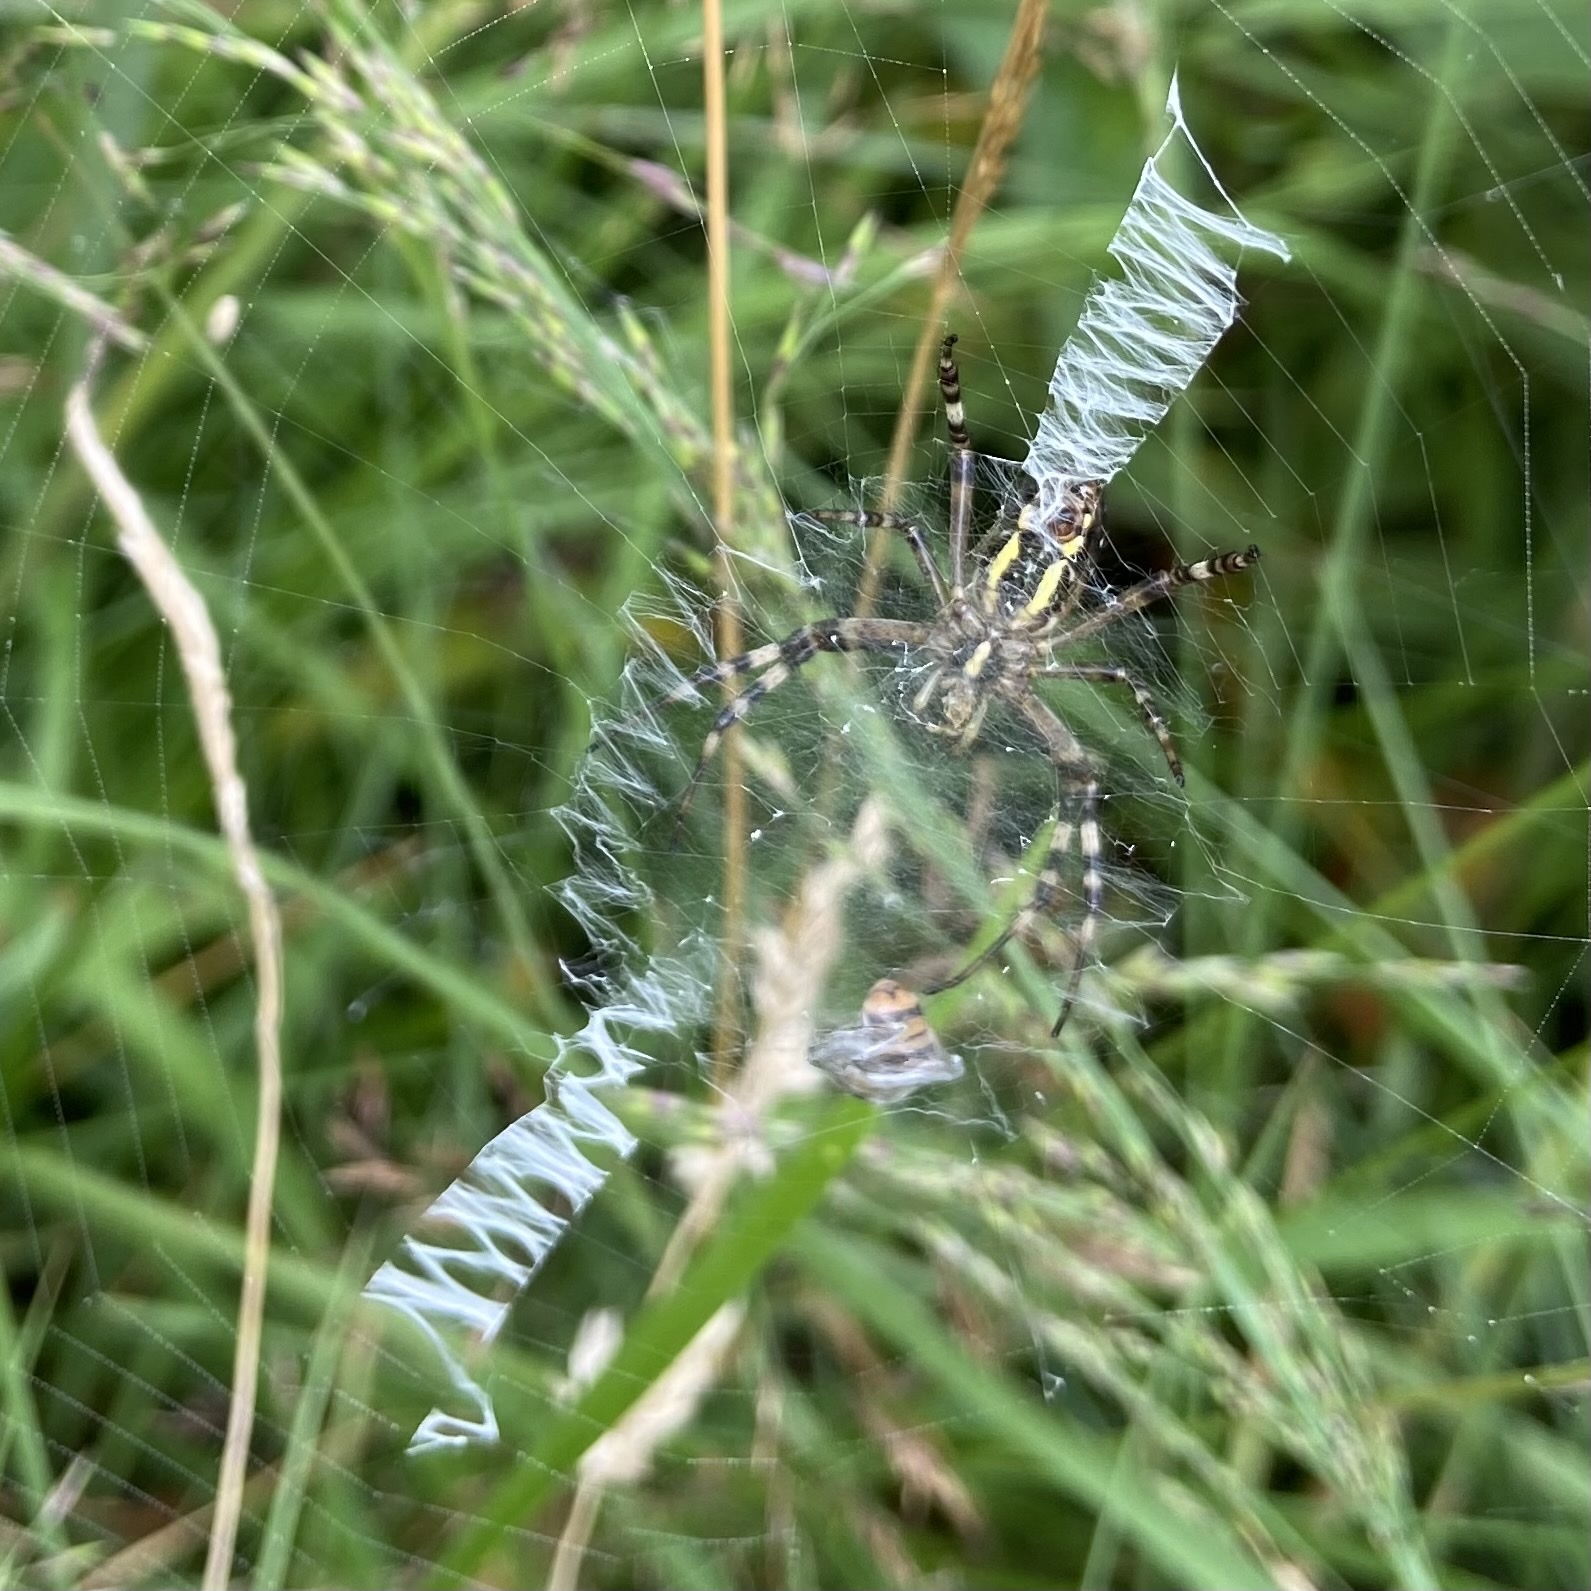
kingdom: Animalia
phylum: Arthropoda
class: Arachnida
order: Araneae
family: Araneidae
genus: Argiope
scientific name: Argiope bruennichi
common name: Wasp spider
